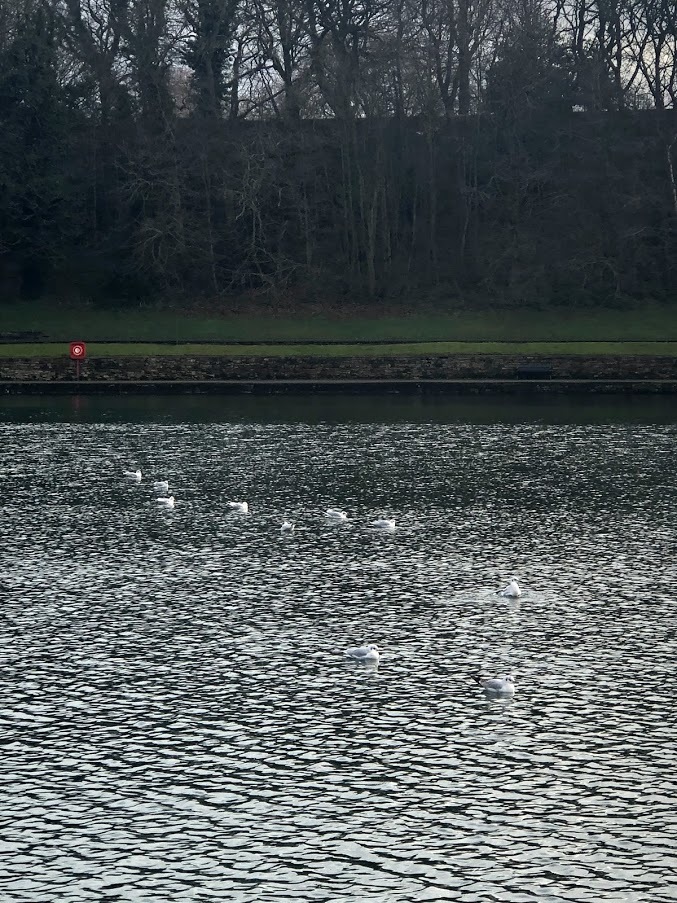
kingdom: Animalia
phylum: Chordata
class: Aves
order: Charadriiformes
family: Laridae
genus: Chroicocephalus
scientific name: Chroicocephalus ridibundus
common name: Black-headed gull
